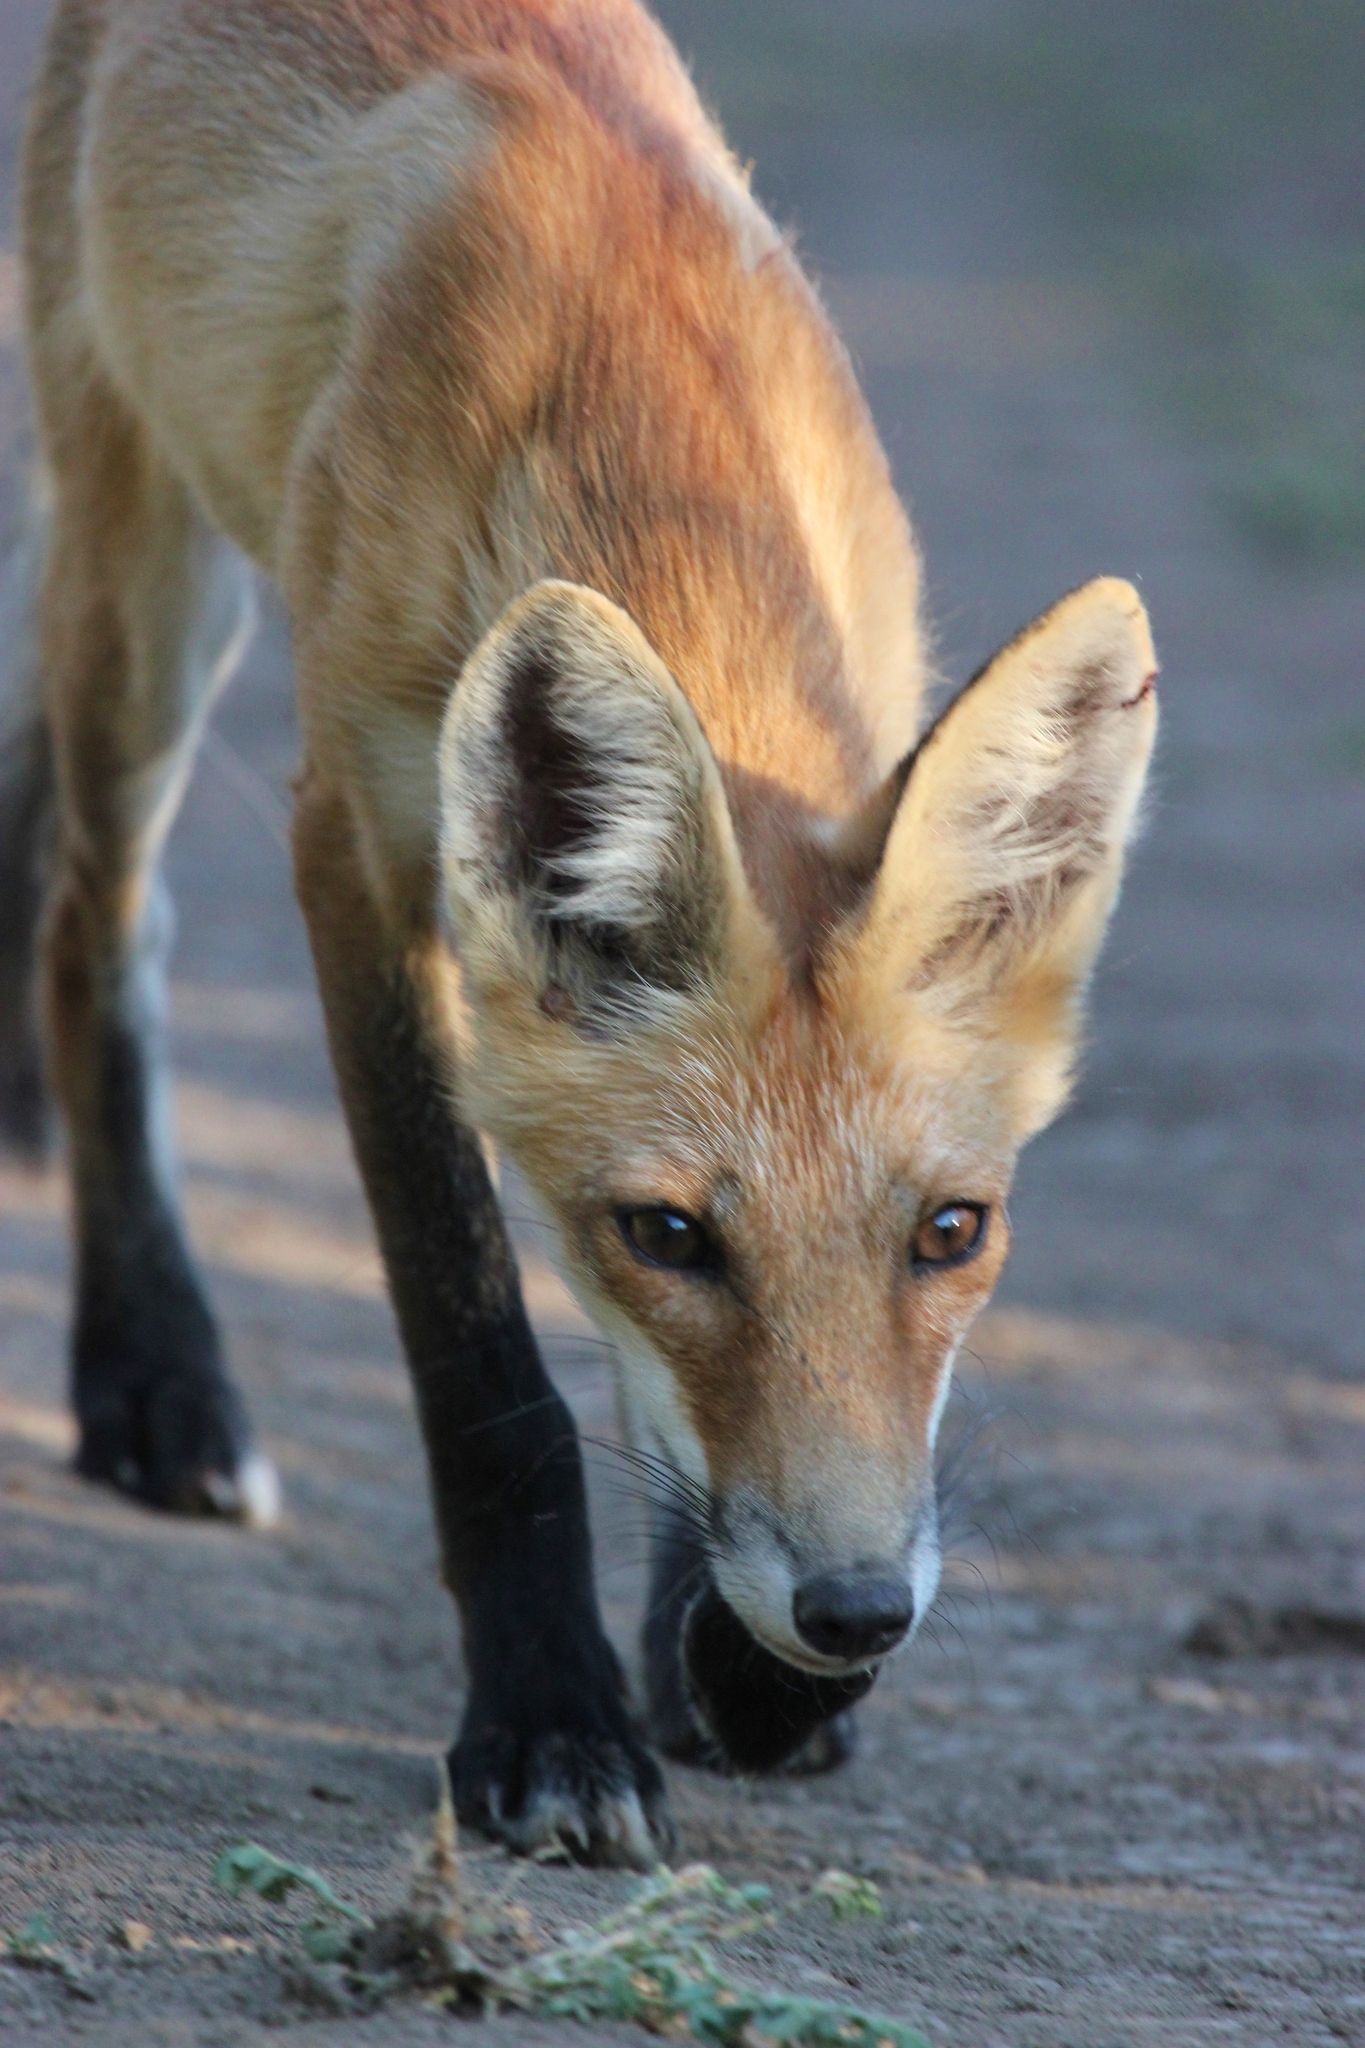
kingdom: Animalia
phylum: Chordata
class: Mammalia
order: Carnivora
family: Canidae
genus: Vulpes
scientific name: Vulpes vulpes
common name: Red fox
